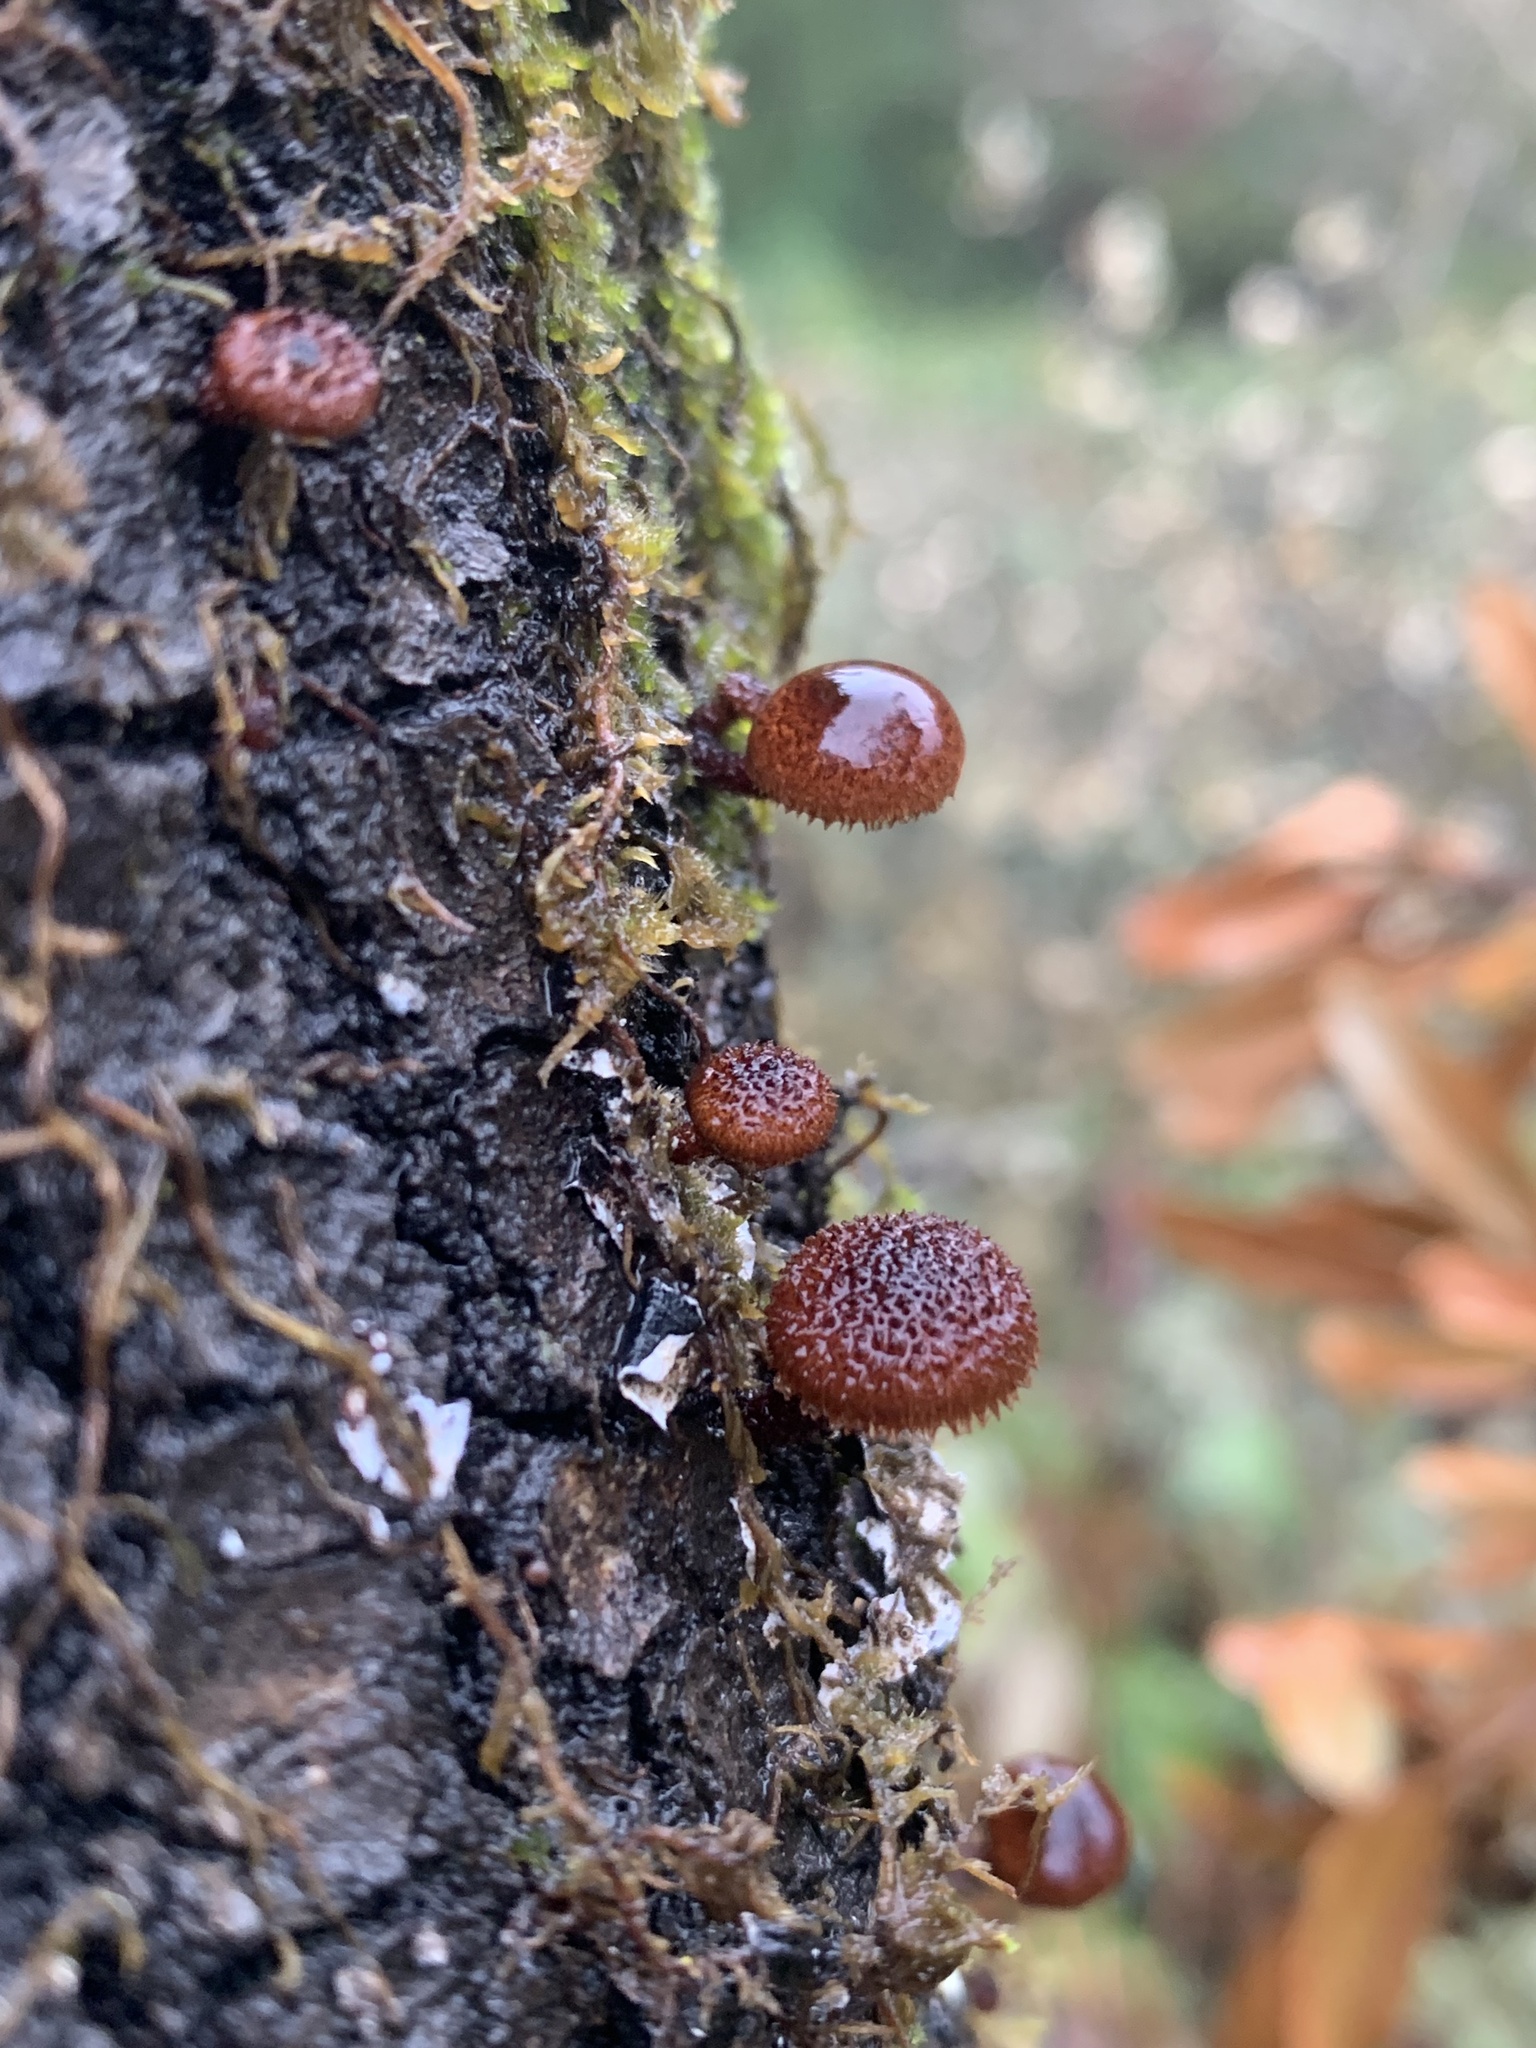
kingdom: Fungi
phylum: Basidiomycota
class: Agaricomycetes
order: Agaricales
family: Tubariaceae
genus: Phaeomarasmius
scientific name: Phaeomarasmius erinaceus
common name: Hedgehog scalycap
